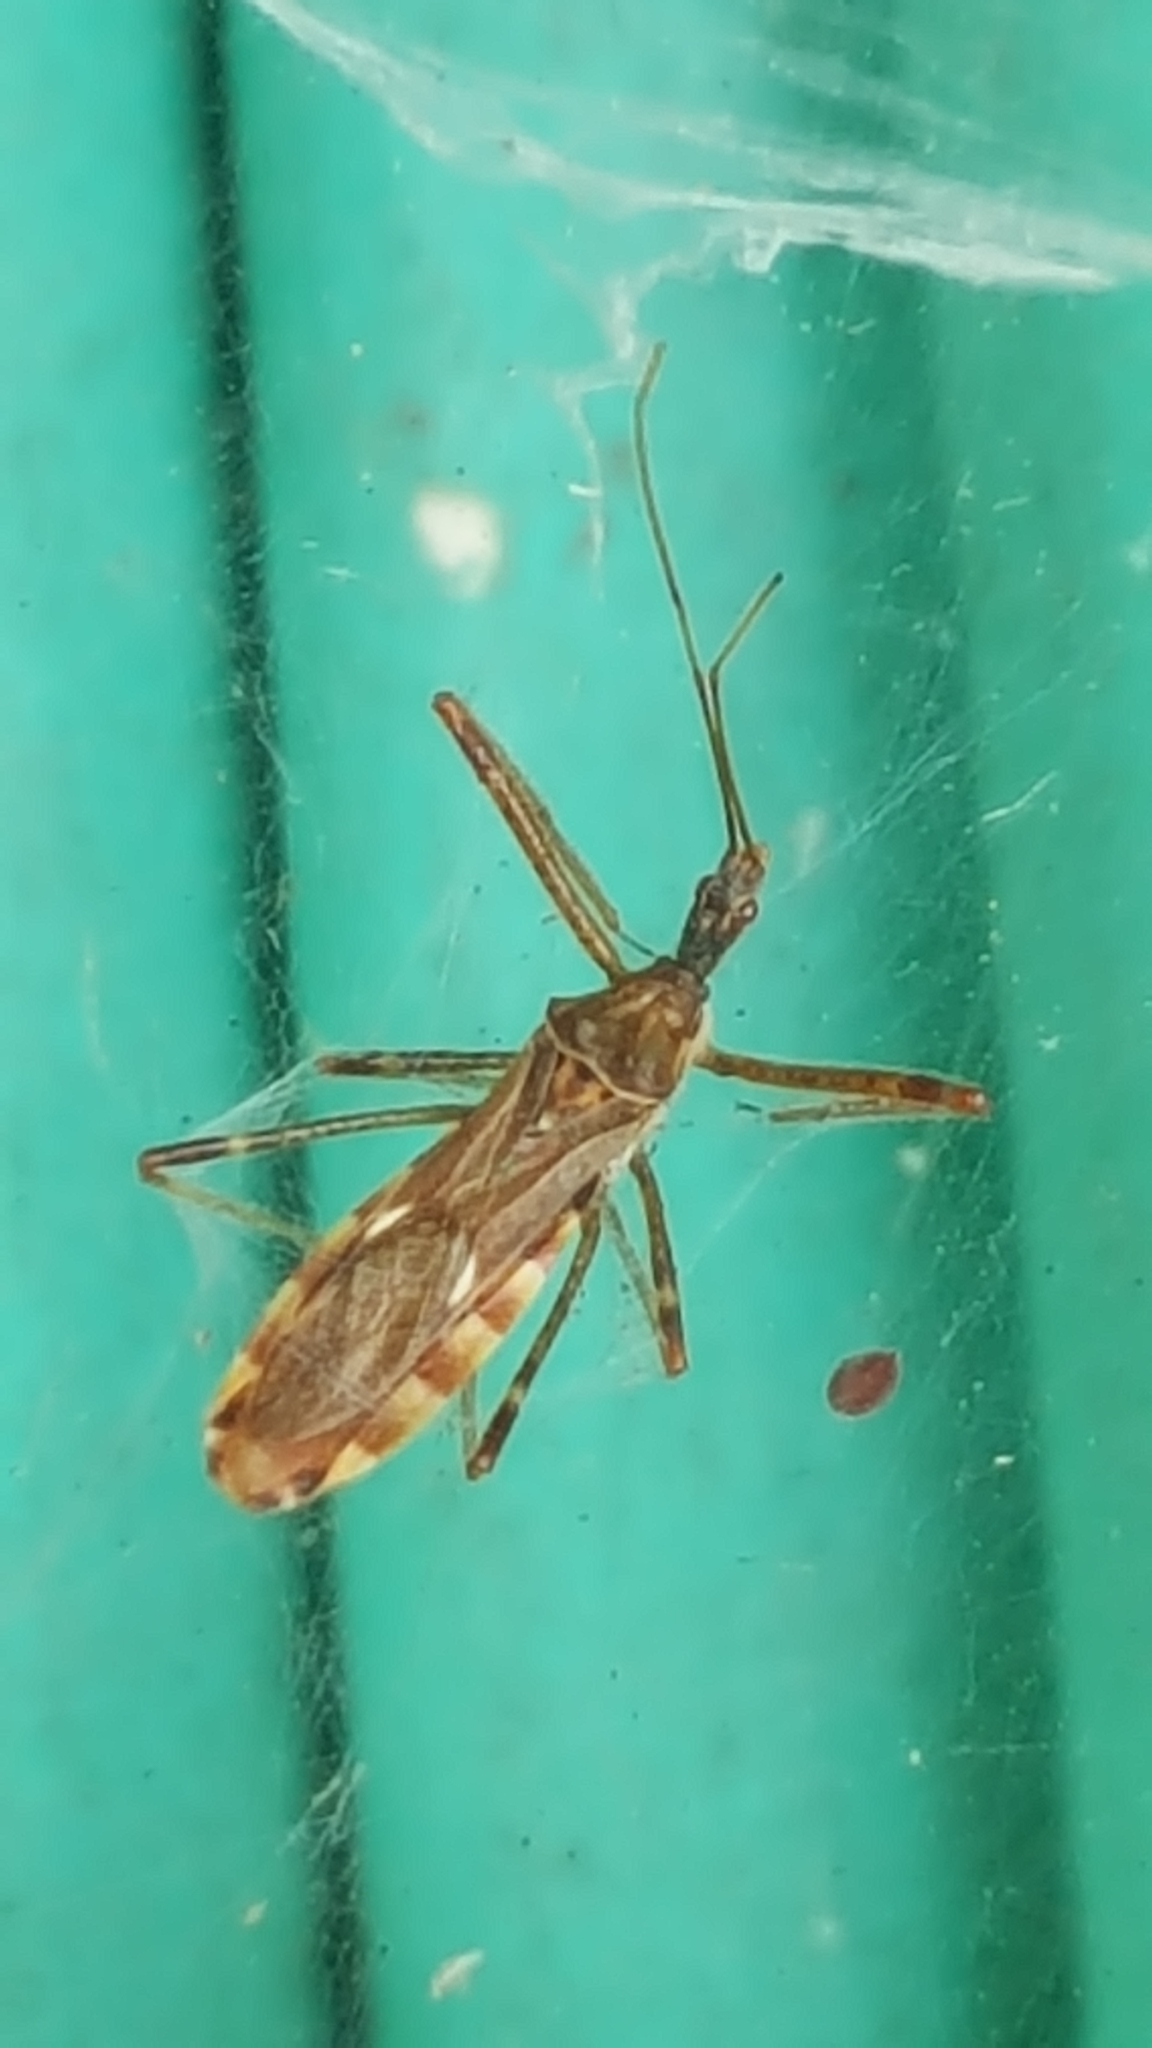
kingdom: Animalia
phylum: Arthropoda
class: Insecta
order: Hemiptera
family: Reduviidae
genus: Zelus
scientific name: Zelus tetracanthus
